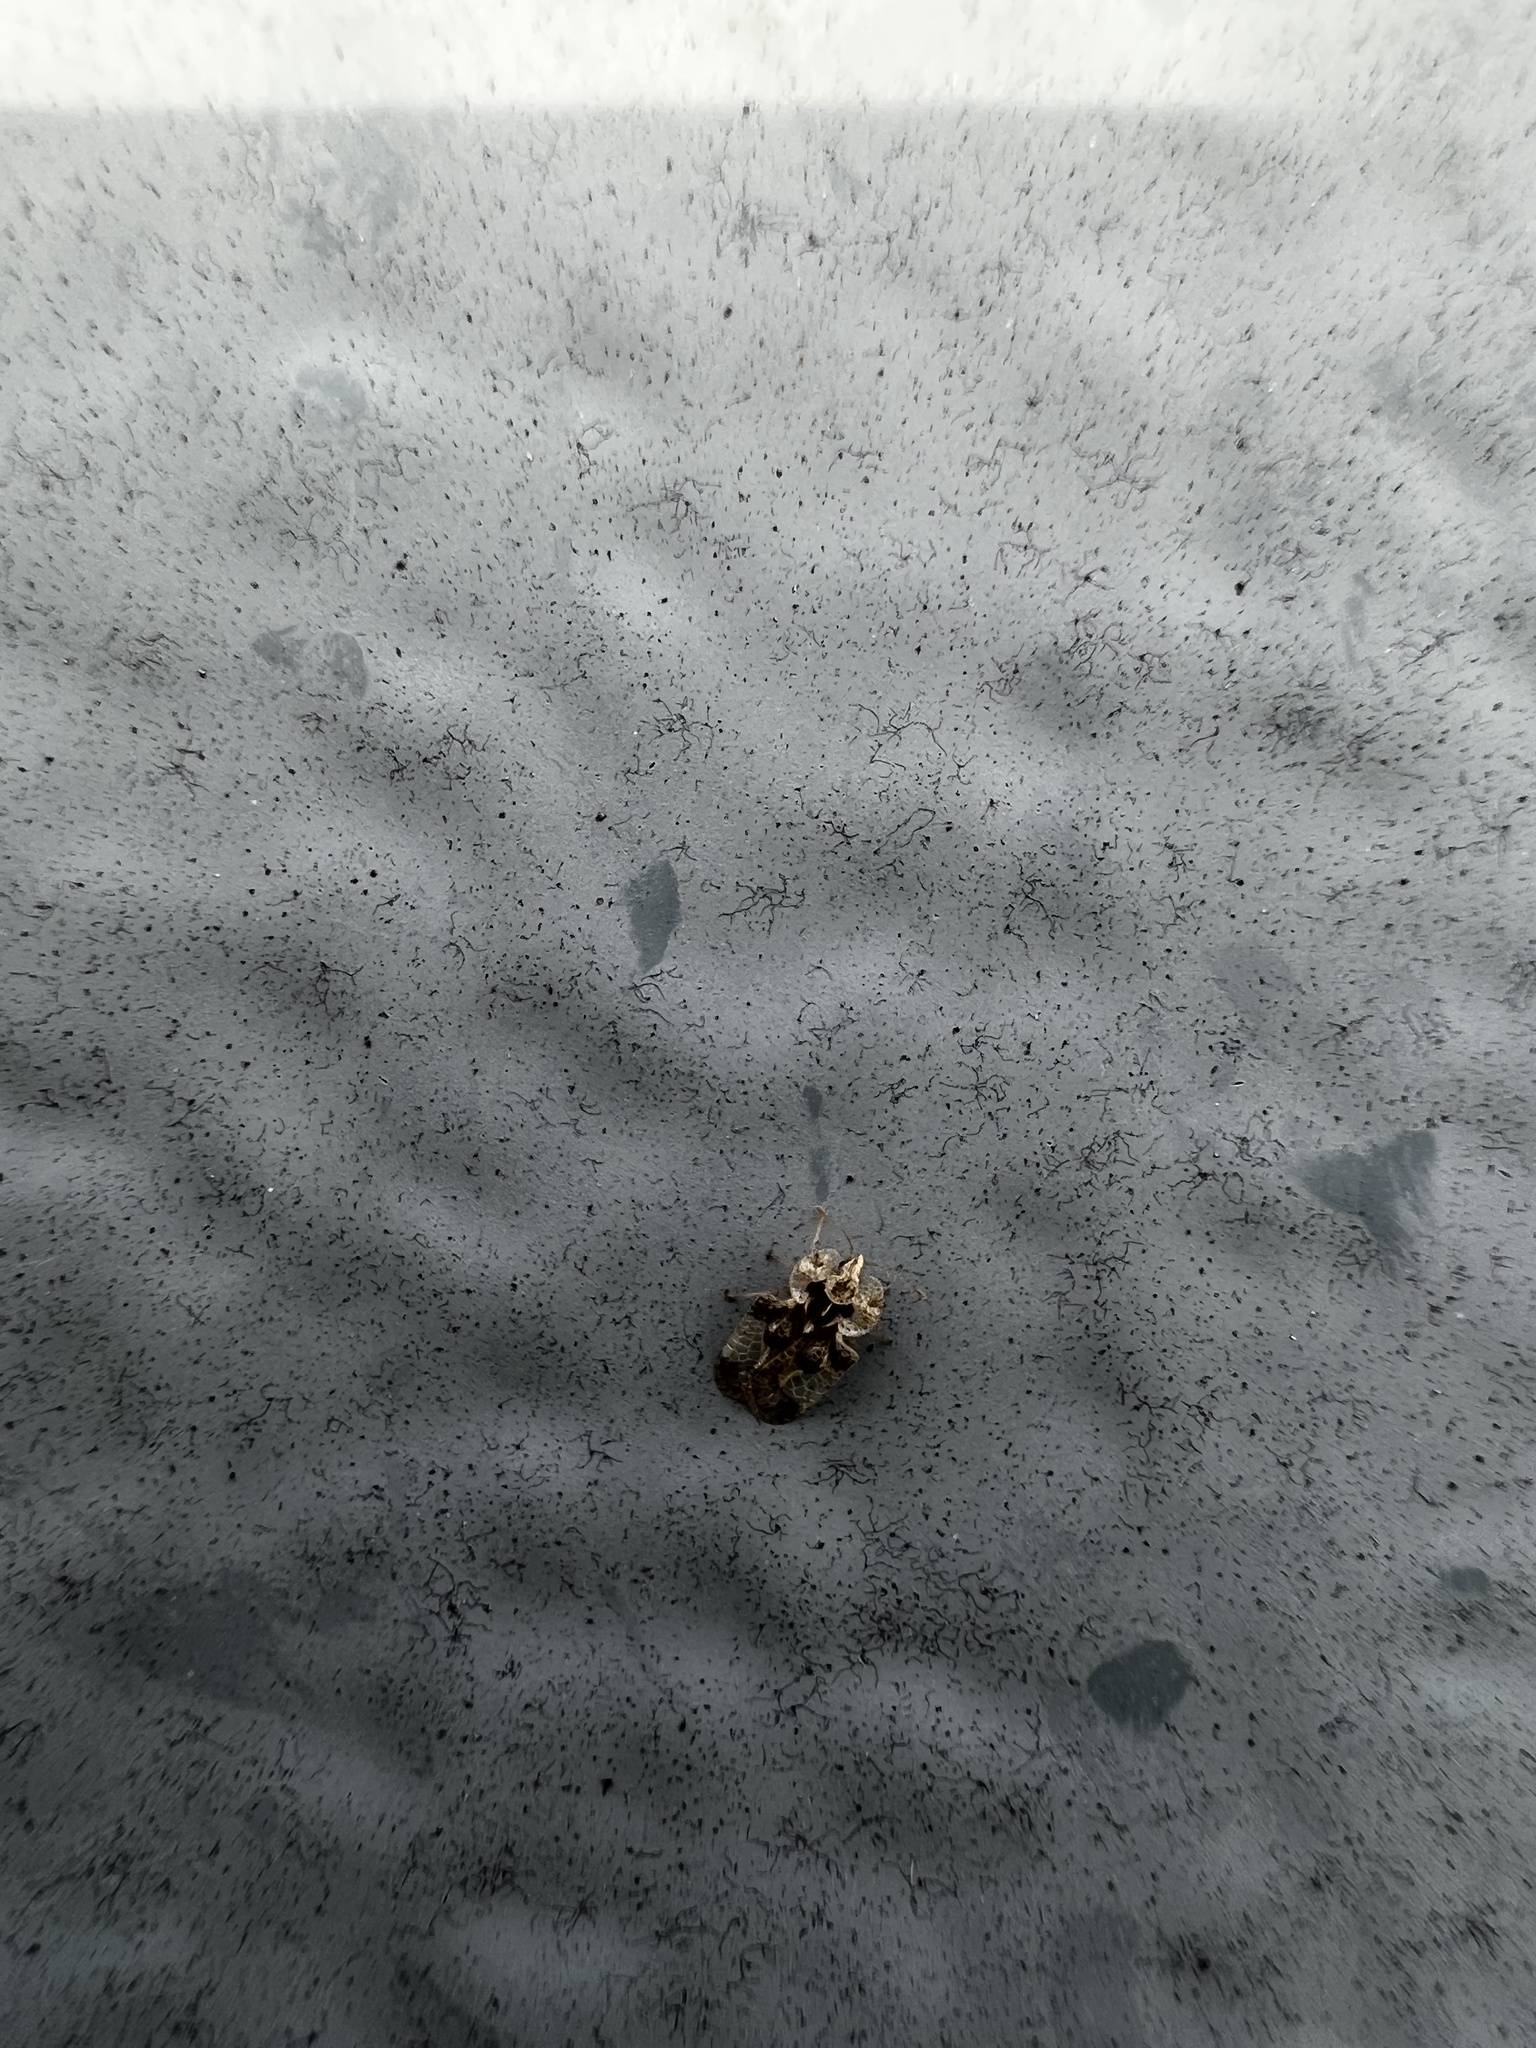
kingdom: Animalia
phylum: Arthropoda
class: Insecta
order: Hemiptera
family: Tingidae
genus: Corythucha
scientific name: Corythucha arcuata
